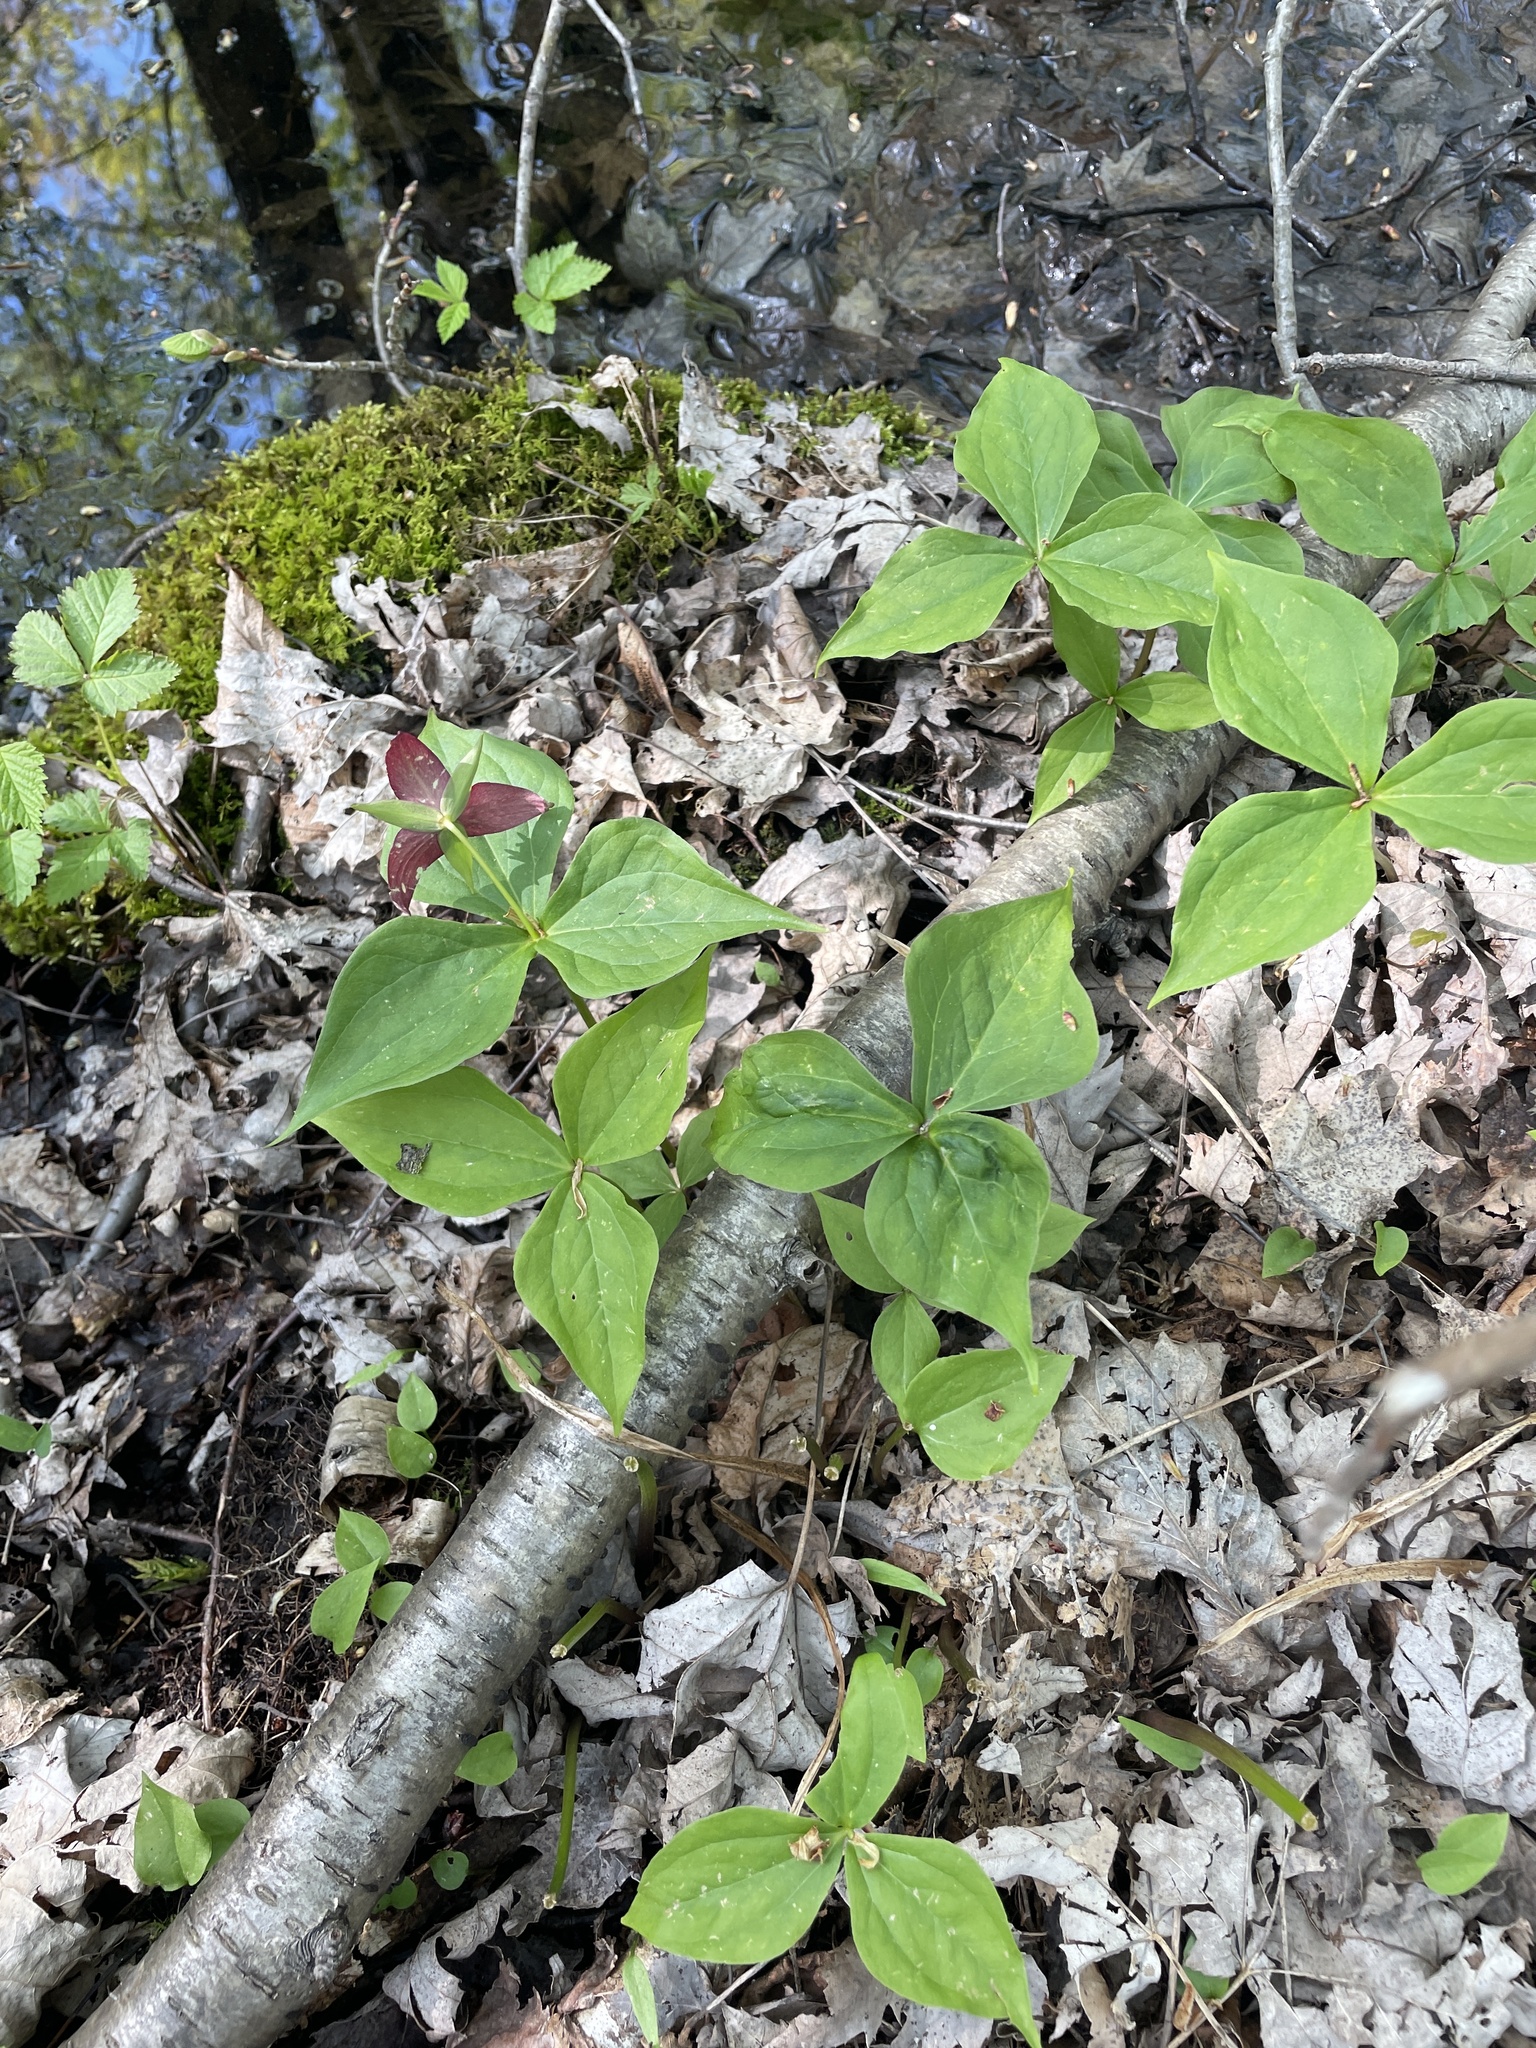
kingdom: Plantae
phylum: Tracheophyta
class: Liliopsida
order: Liliales
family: Melanthiaceae
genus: Trillium
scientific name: Trillium erectum
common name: Purple trillium
